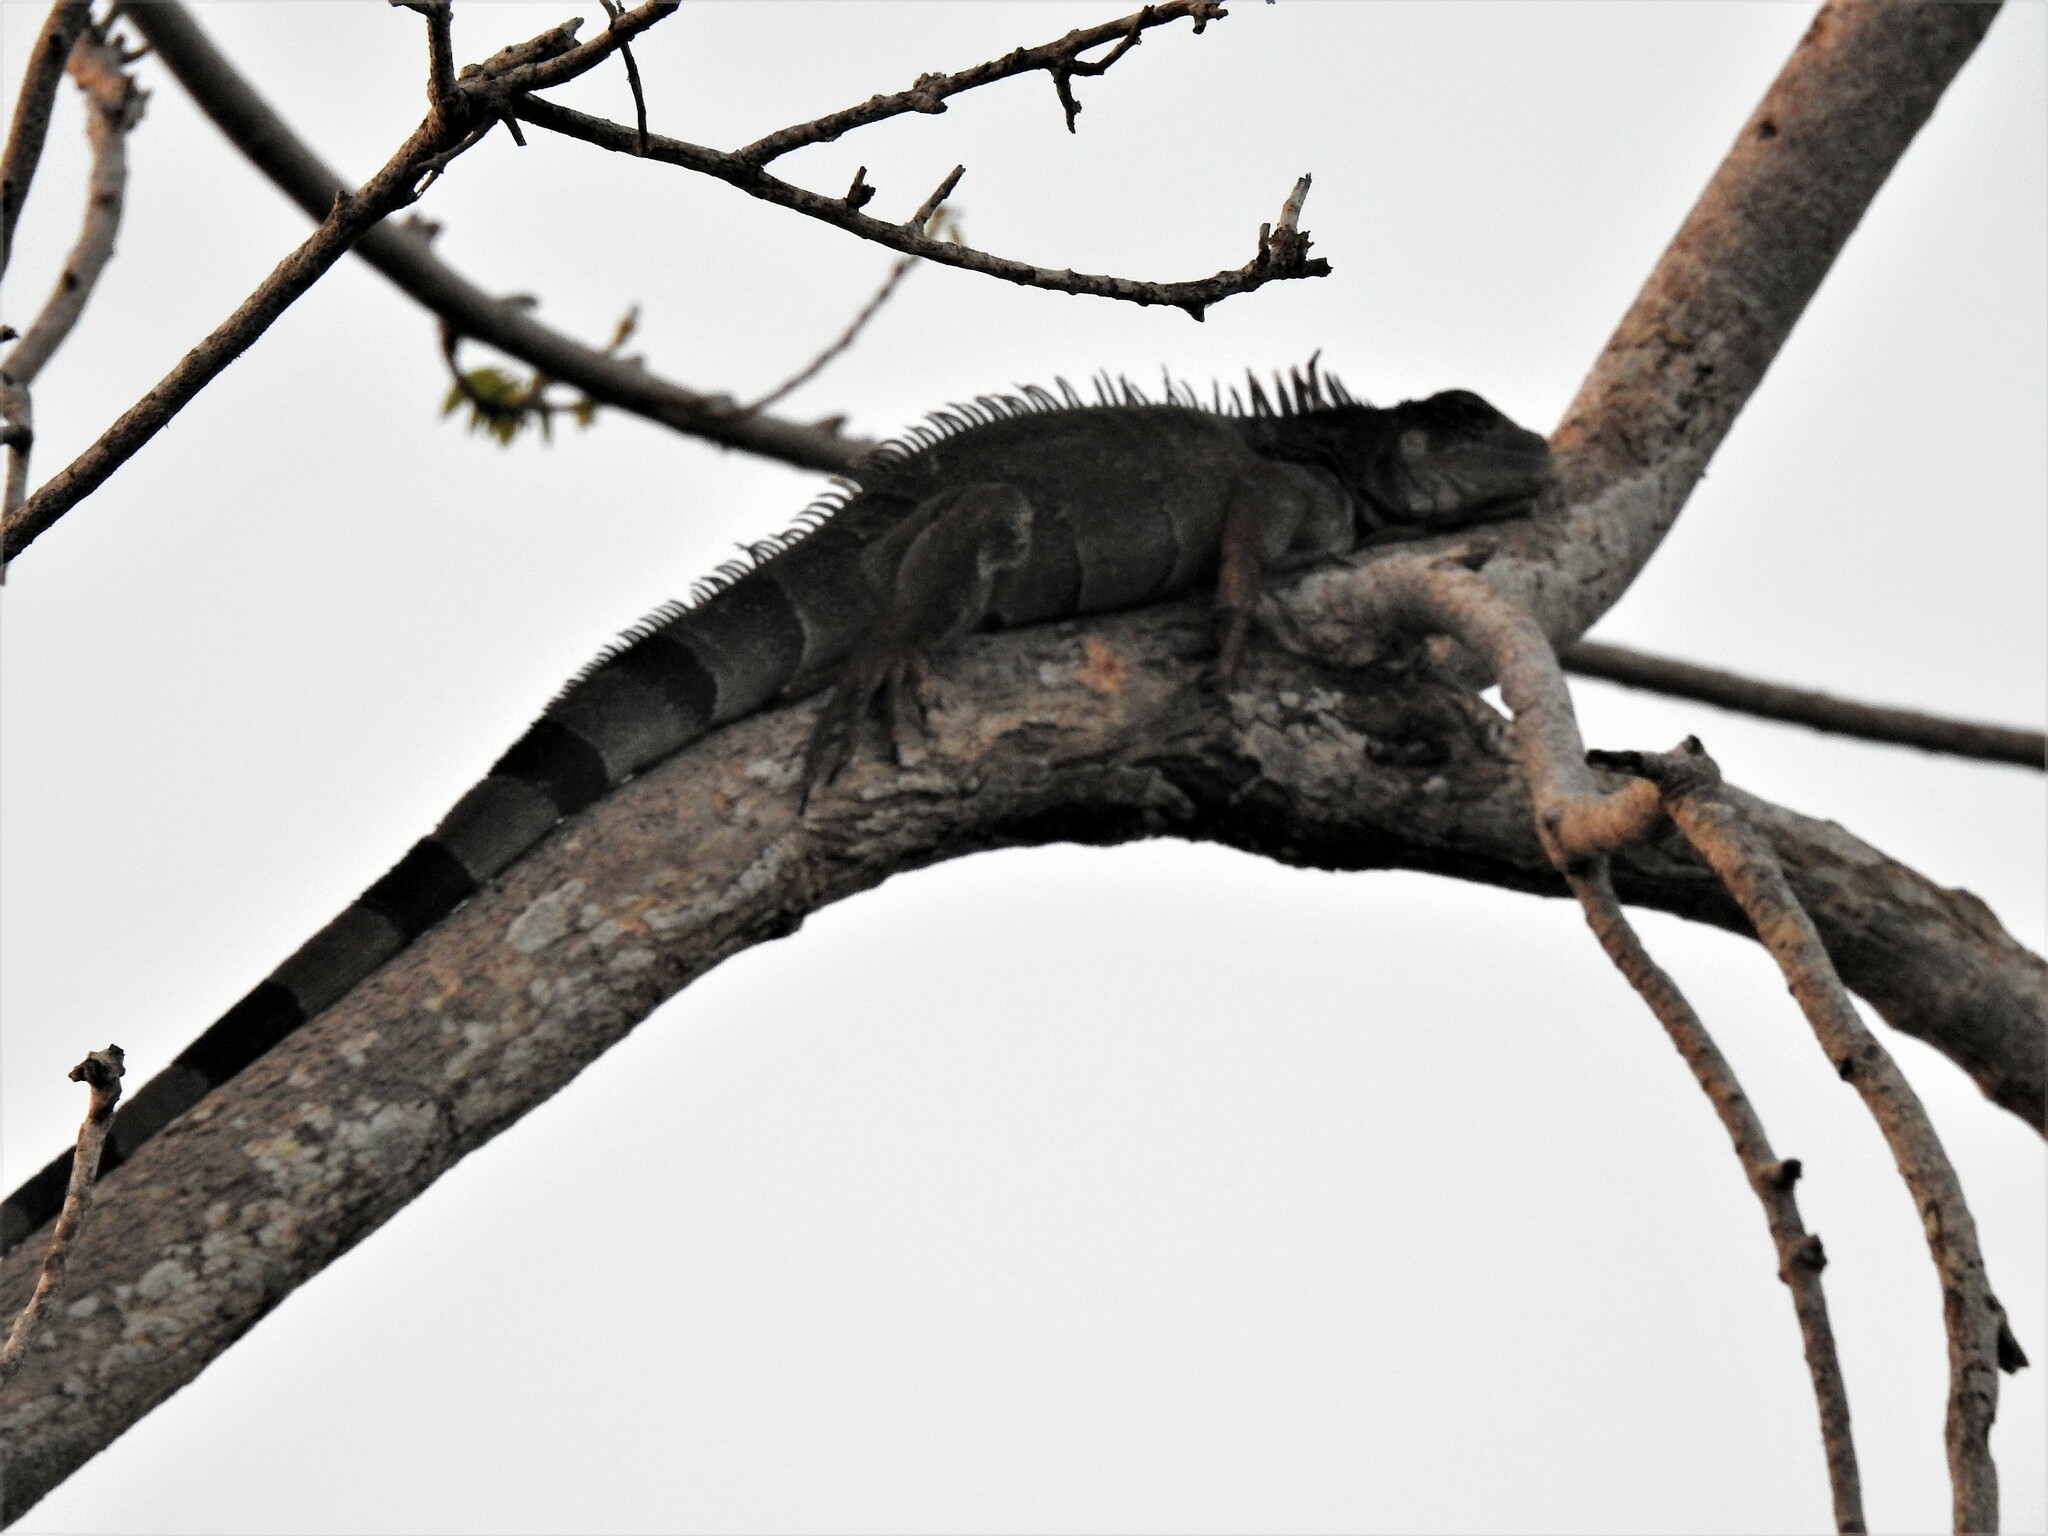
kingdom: Animalia
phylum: Chordata
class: Squamata
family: Iguanidae
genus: Iguana
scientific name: Iguana iguana
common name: Green iguana
